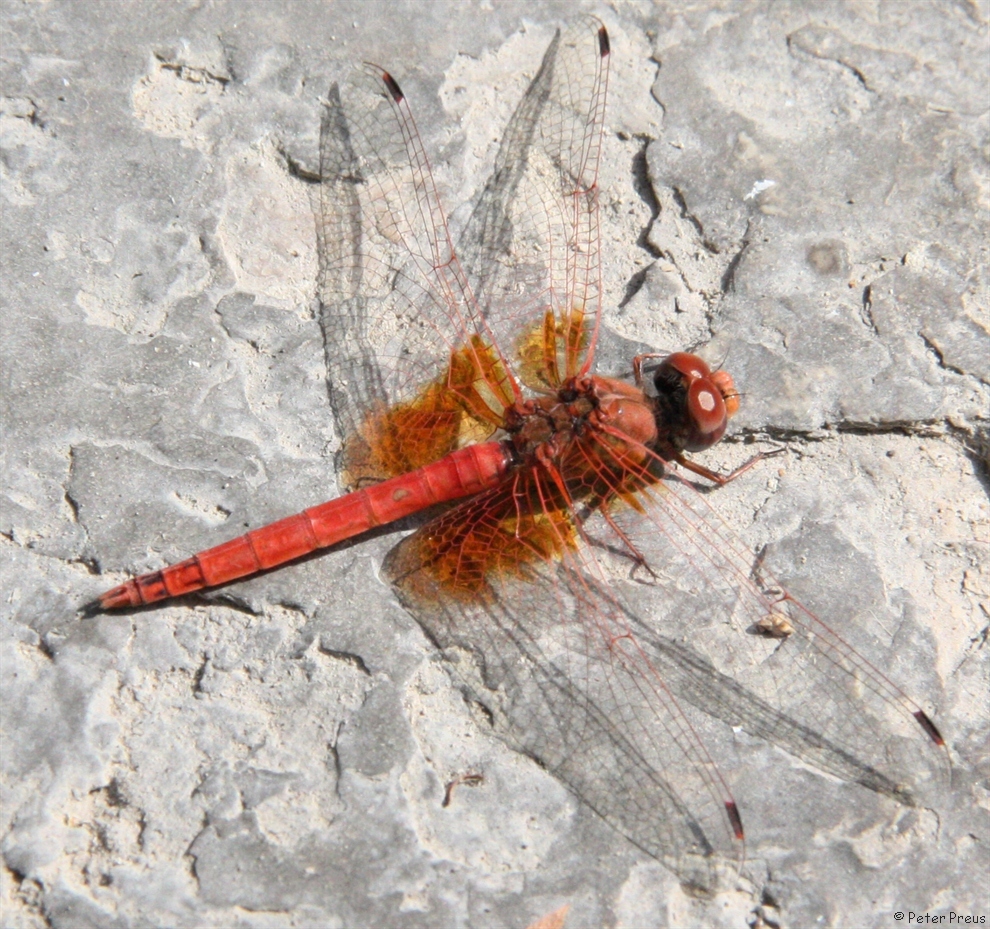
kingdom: Animalia
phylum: Arthropoda
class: Insecta
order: Odonata
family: Libellulidae
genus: Trithemis
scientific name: Trithemis kirbyi
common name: Kirby's dropwing
